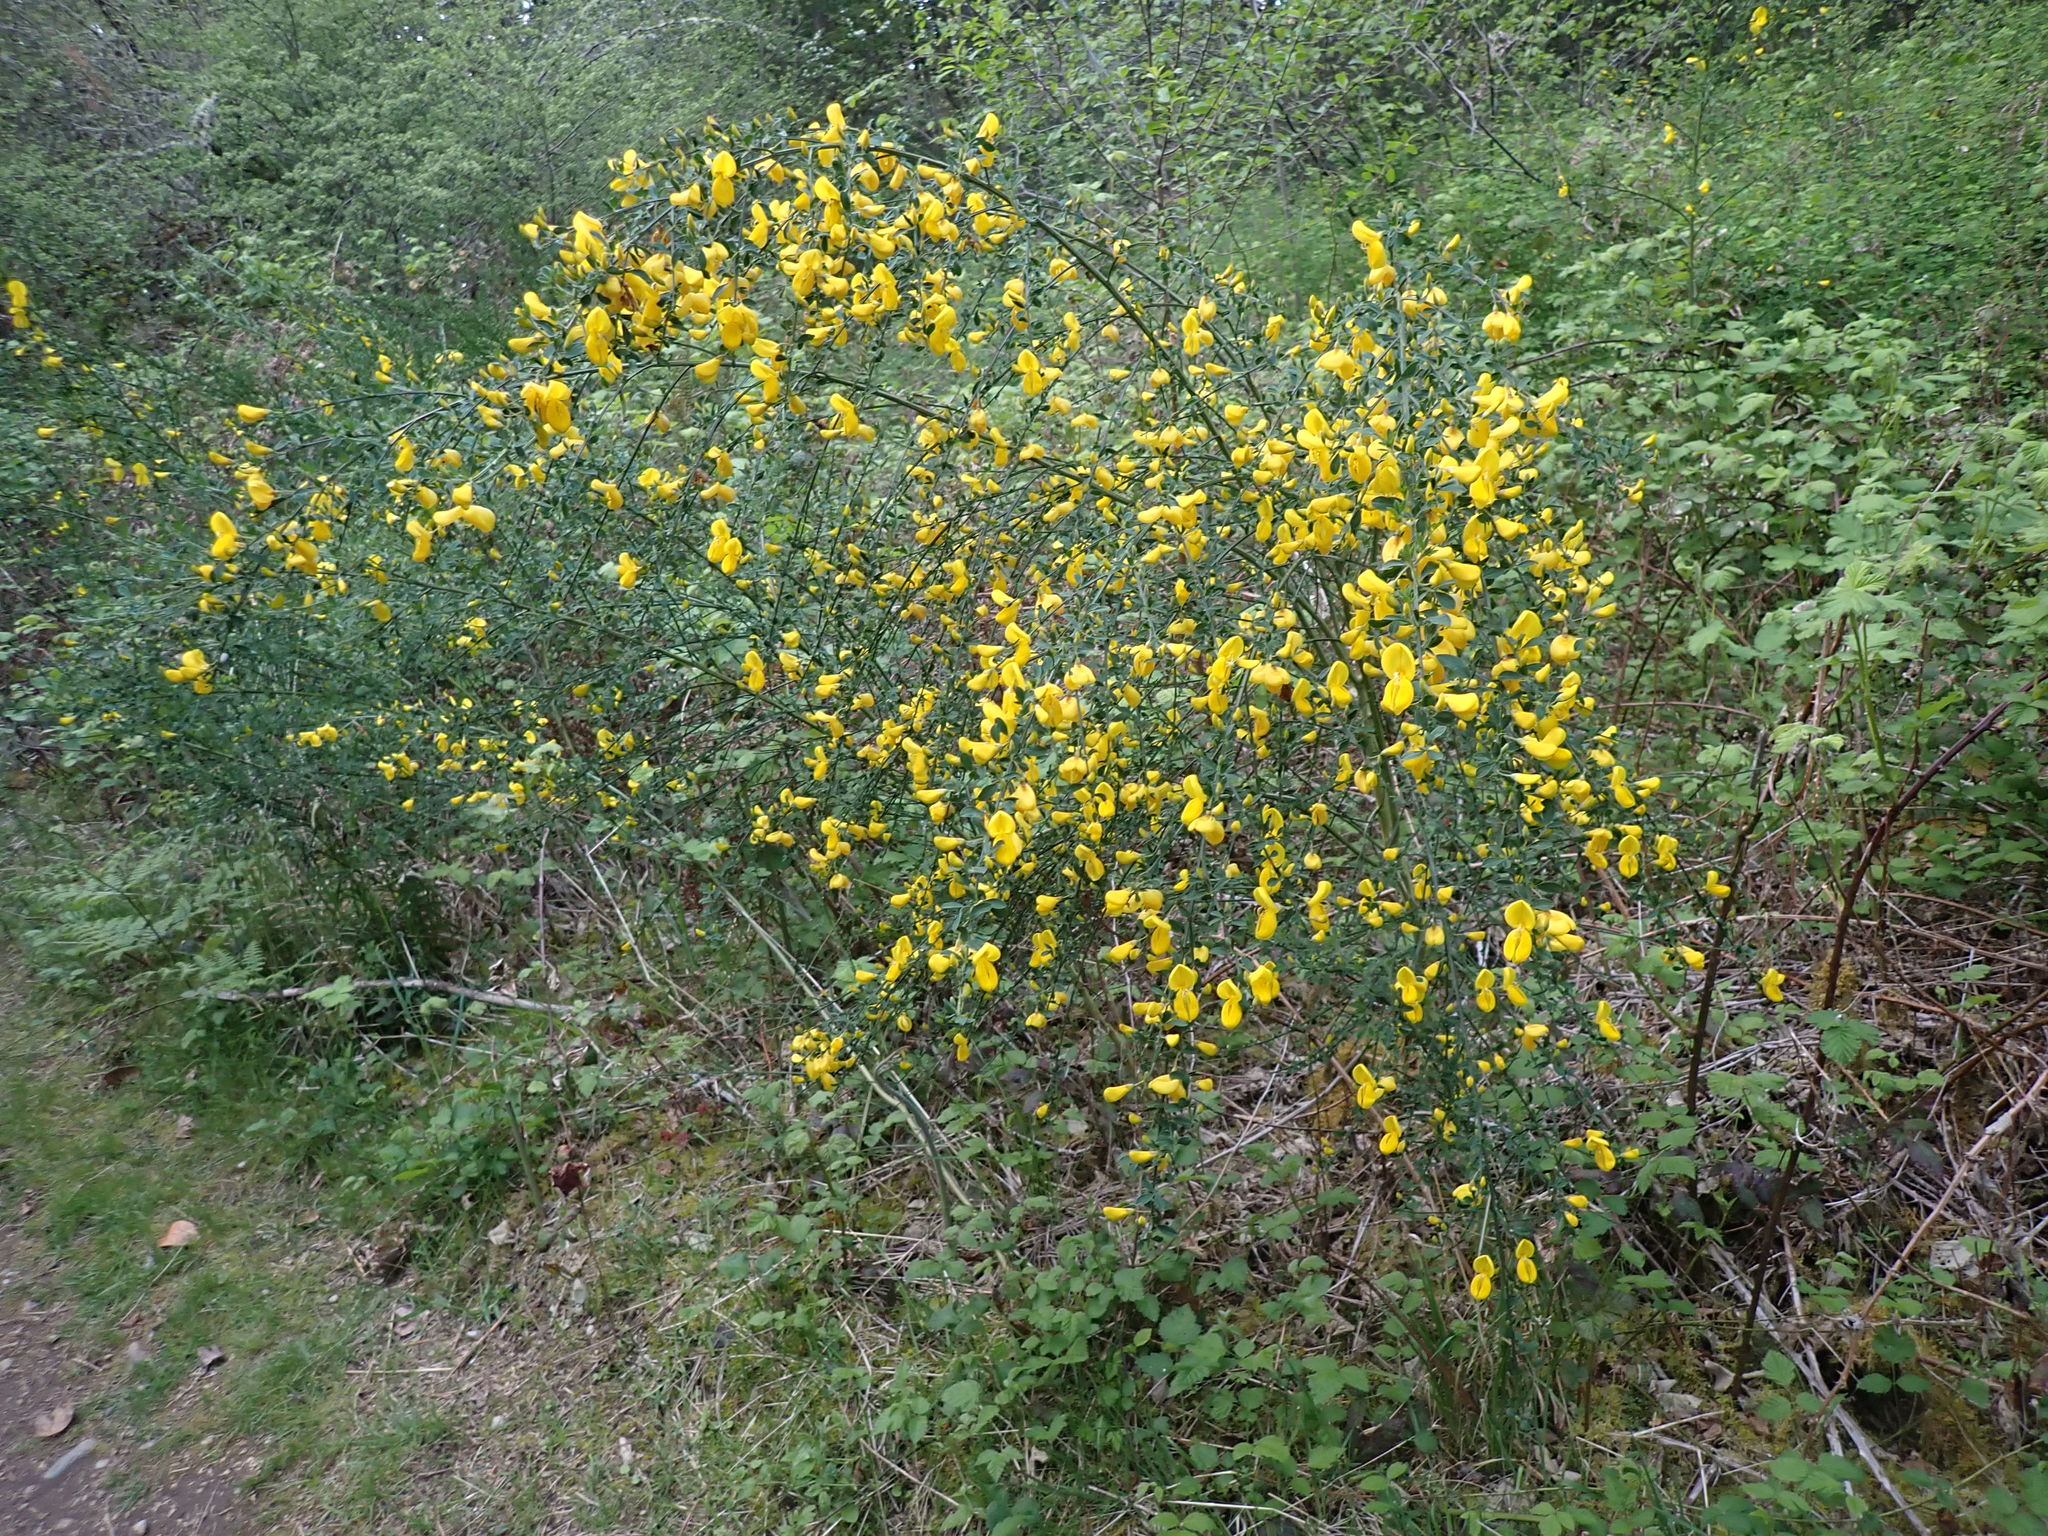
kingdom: Plantae
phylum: Tracheophyta
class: Magnoliopsida
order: Fabales
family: Fabaceae
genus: Cytisus
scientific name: Cytisus scoparius
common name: Scotch broom
